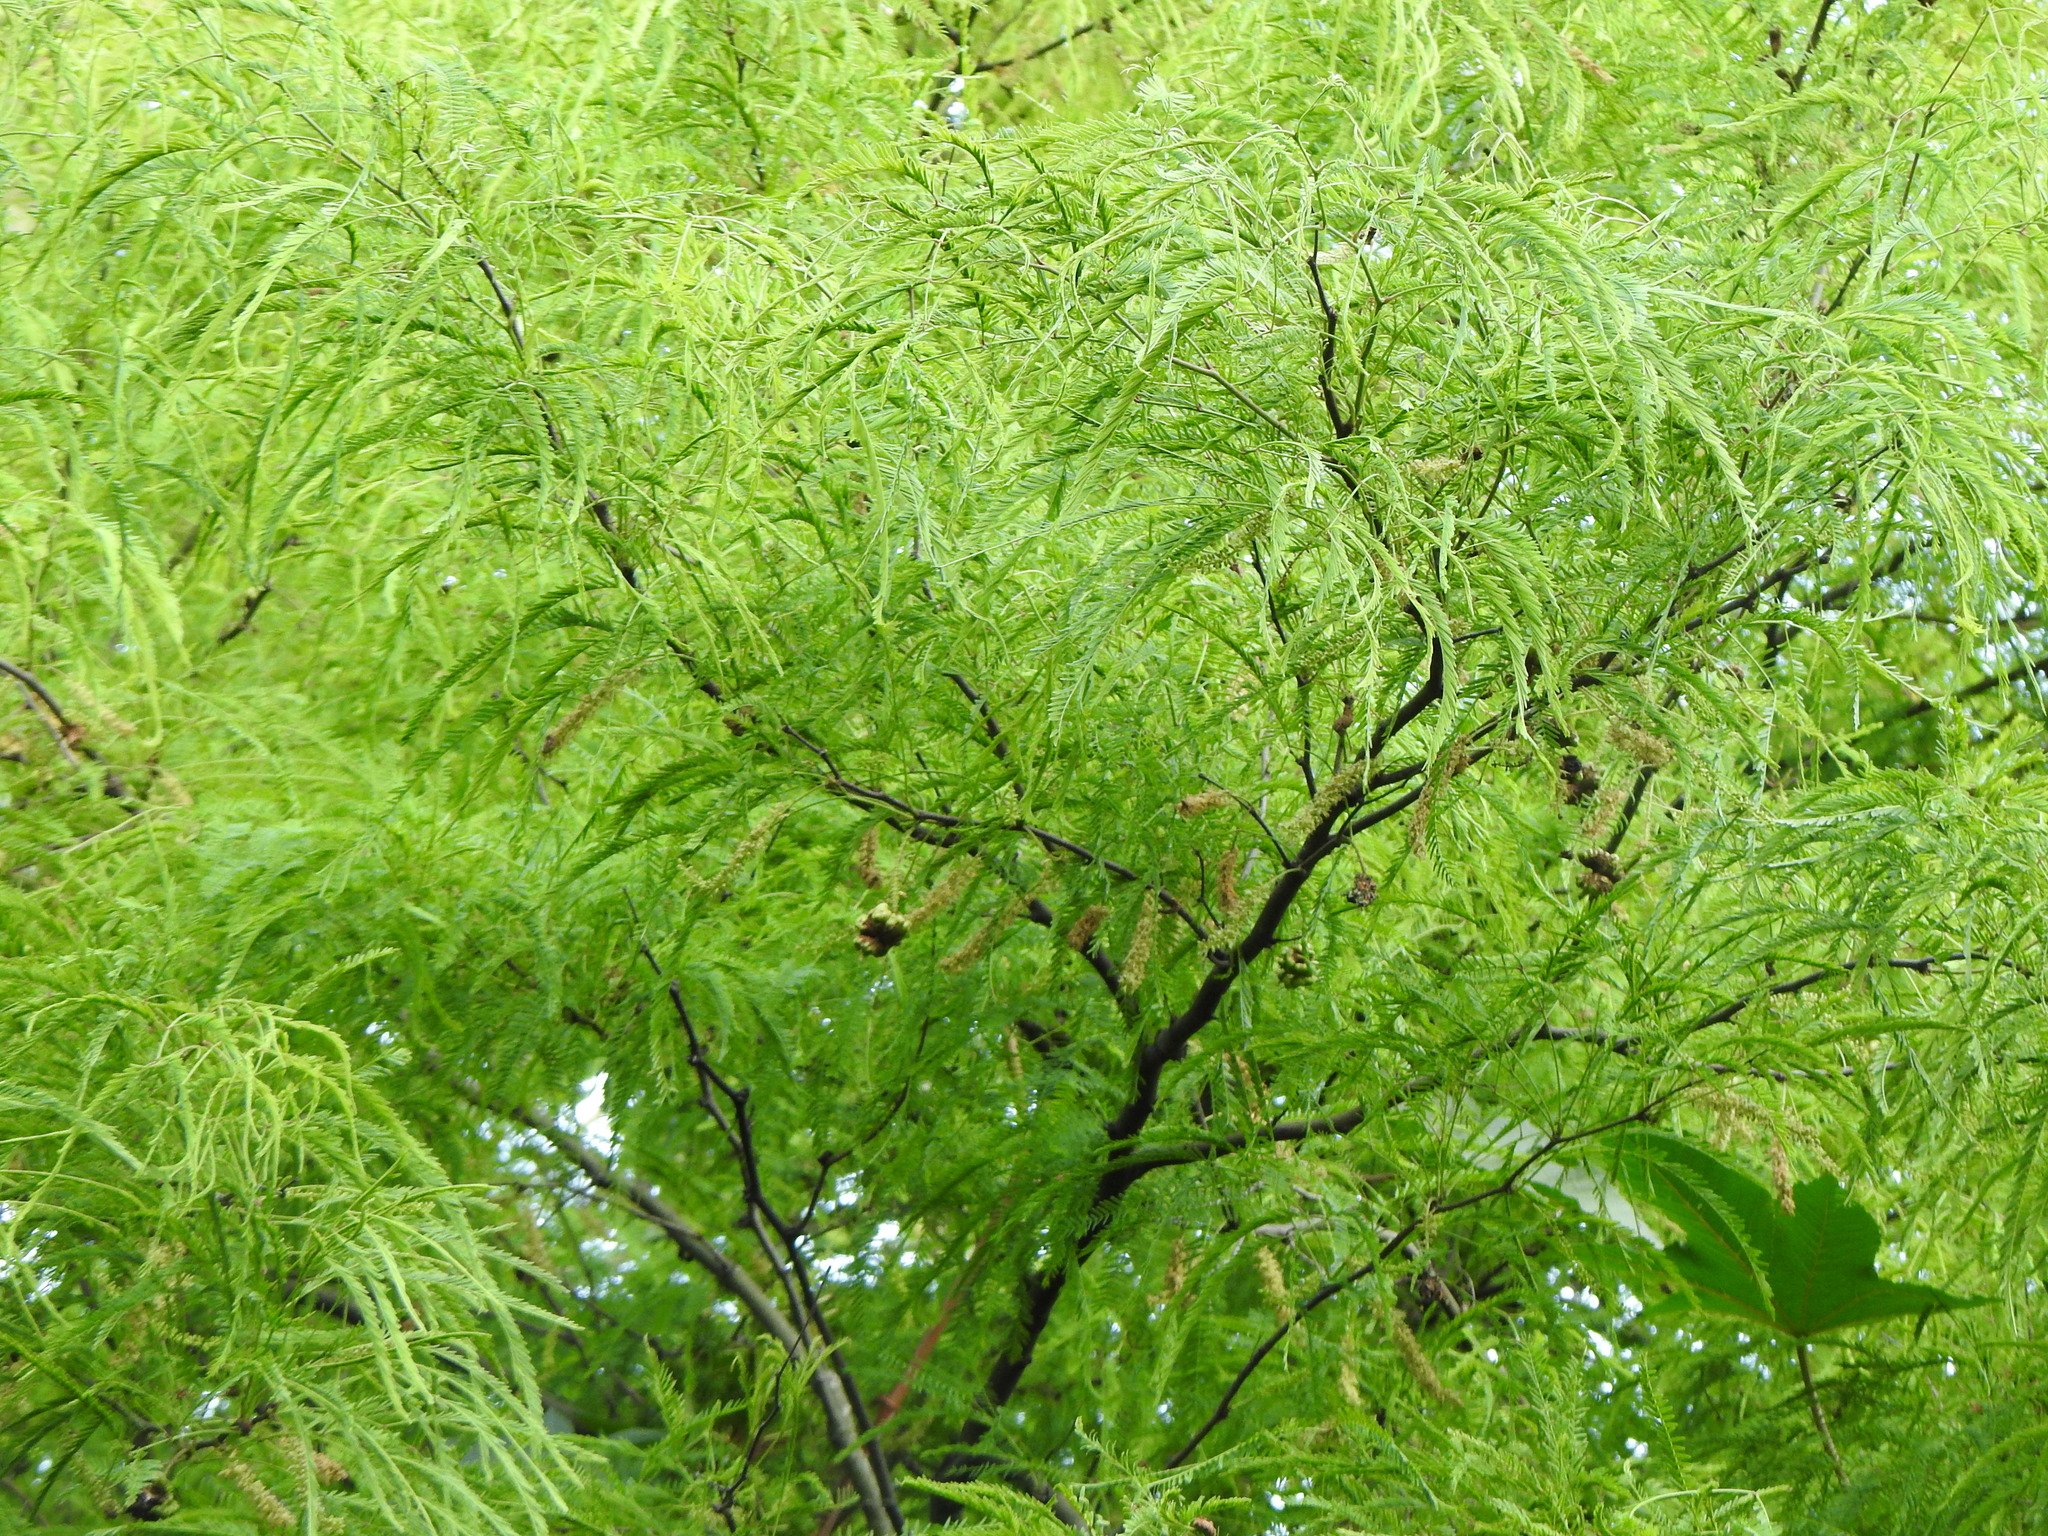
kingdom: Plantae
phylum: Tracheophyta
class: Magnoliopsida
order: Fabales
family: Fabaceae
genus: Prosopis
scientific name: Prosopis alba
